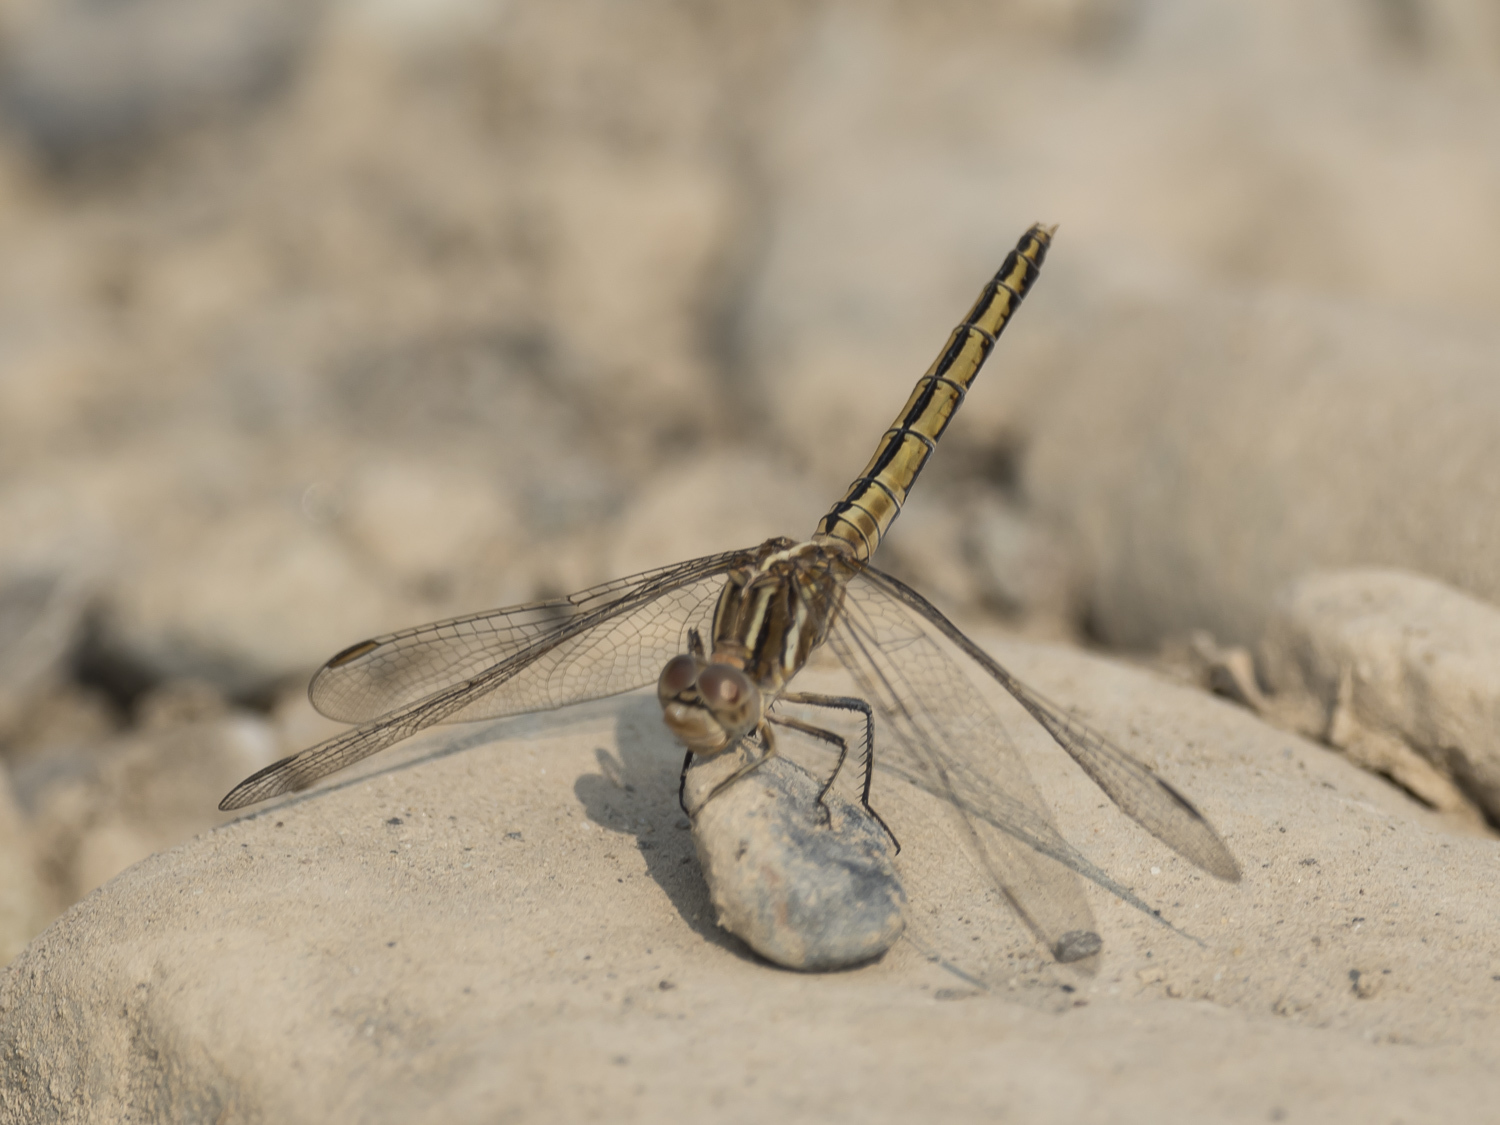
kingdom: Animalia
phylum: Arthropoda
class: Insecta
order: Odonata
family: Libellulidae
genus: Orthetrum
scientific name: Orthetrum taeniolatum
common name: Small skimmer
